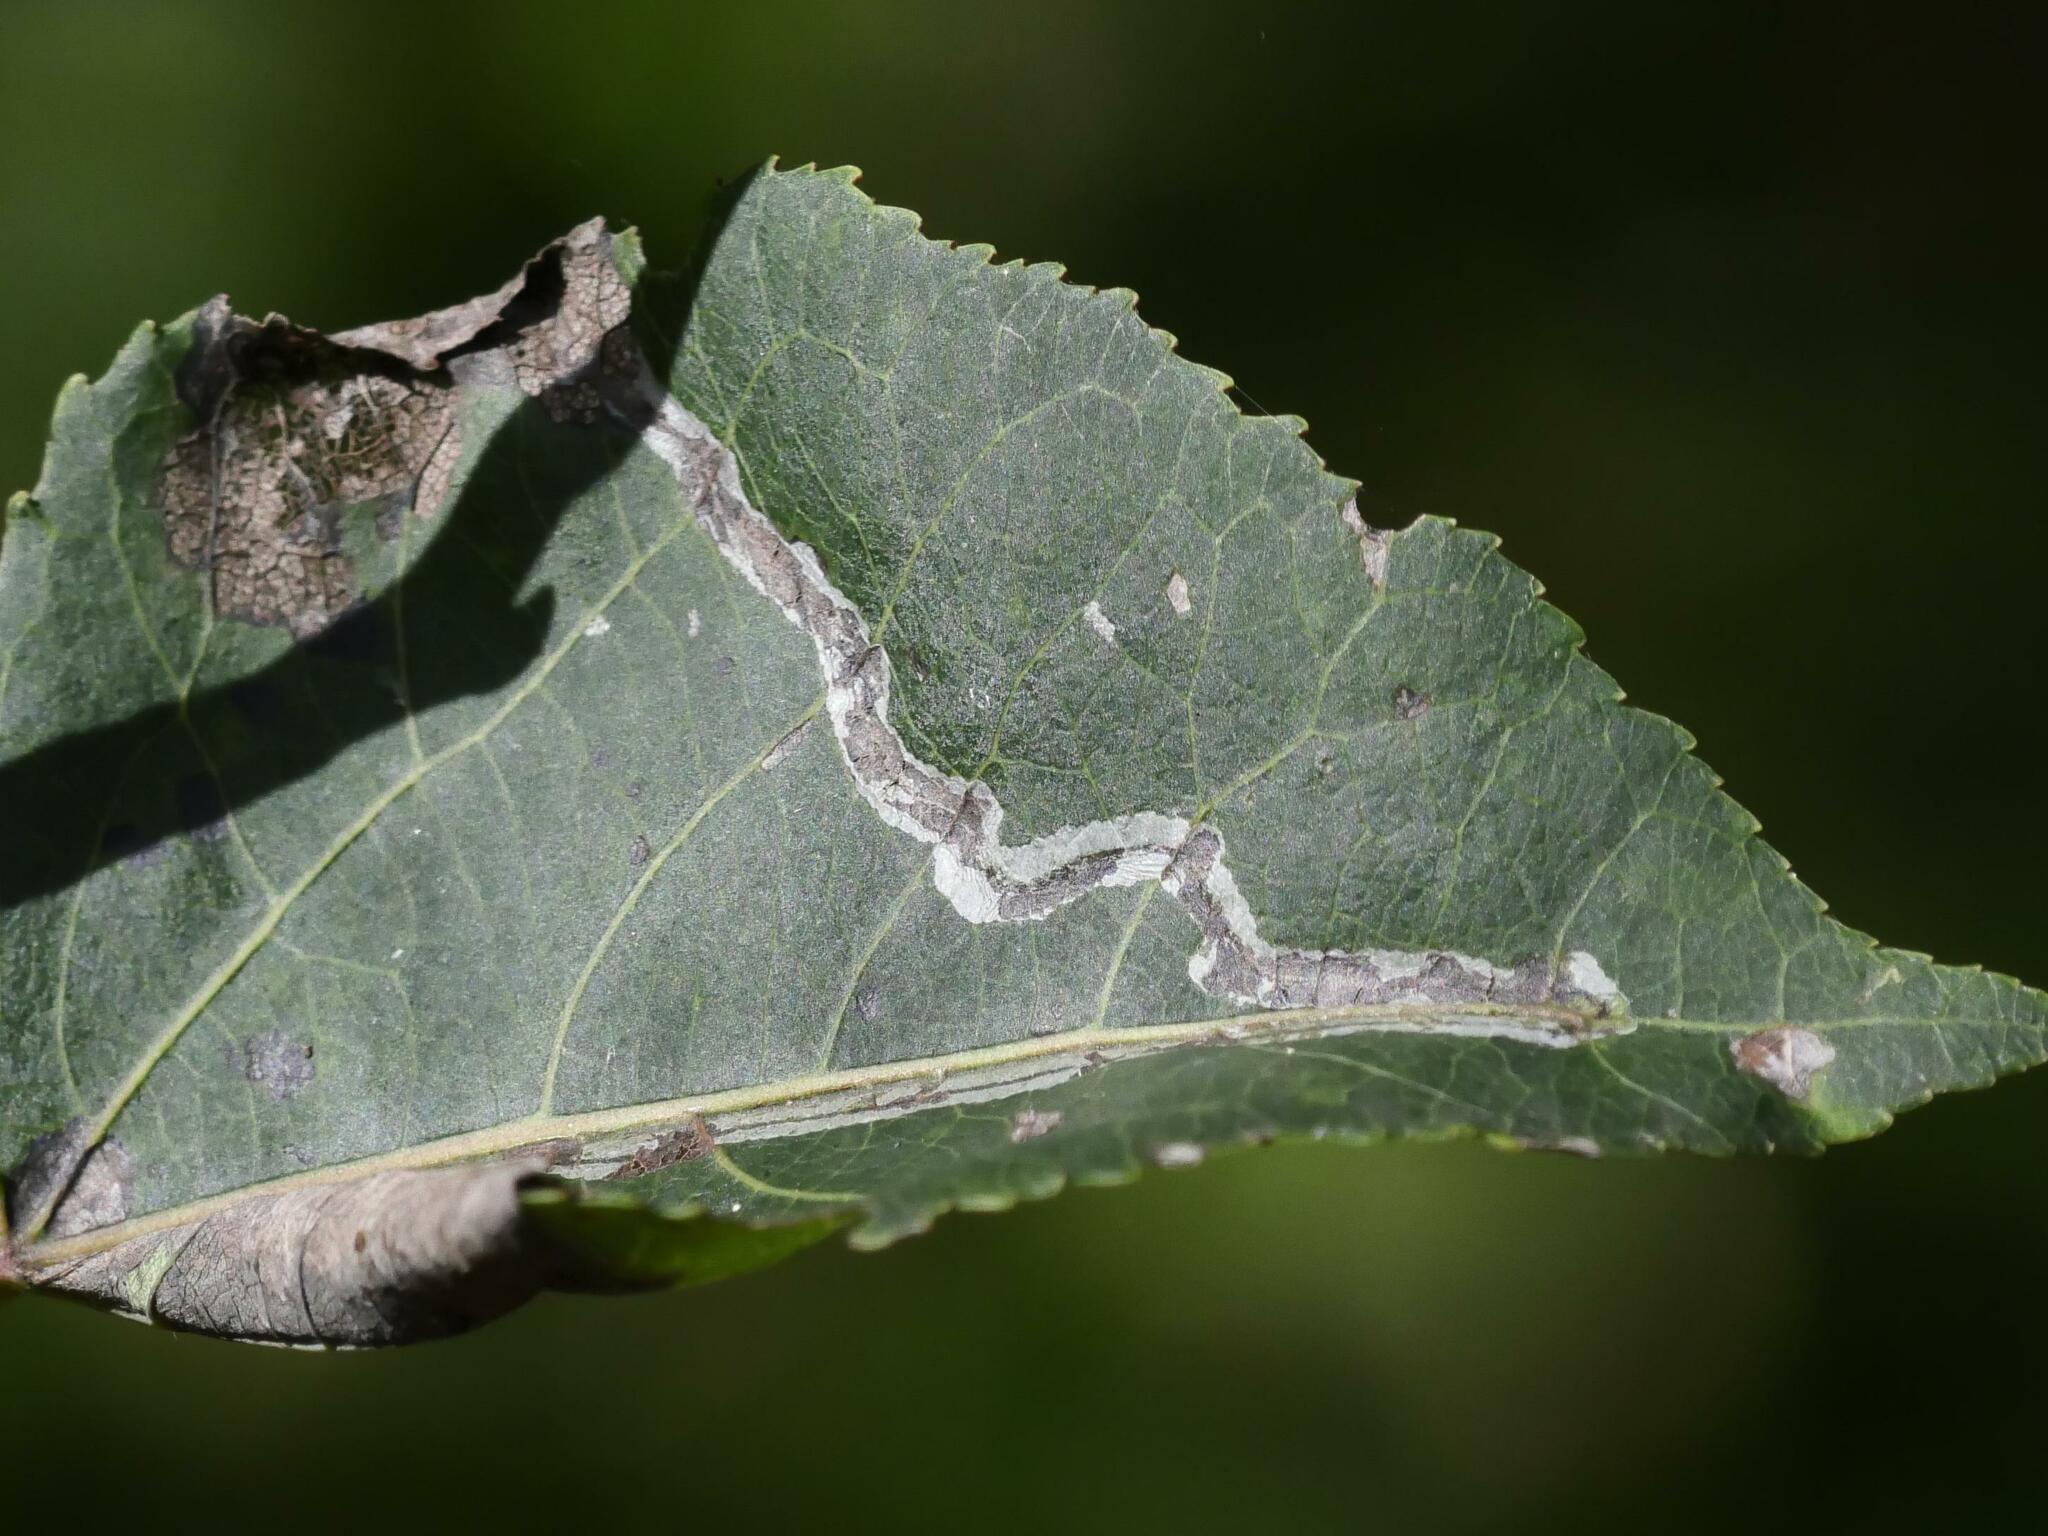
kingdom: Animalia
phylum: Arthropoda
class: Insecta
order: Lepidoptera
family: Gracillariidae
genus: Phyllocnistis
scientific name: Phyllocnistis populiella
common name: Aspen serpentine leafminer moth
